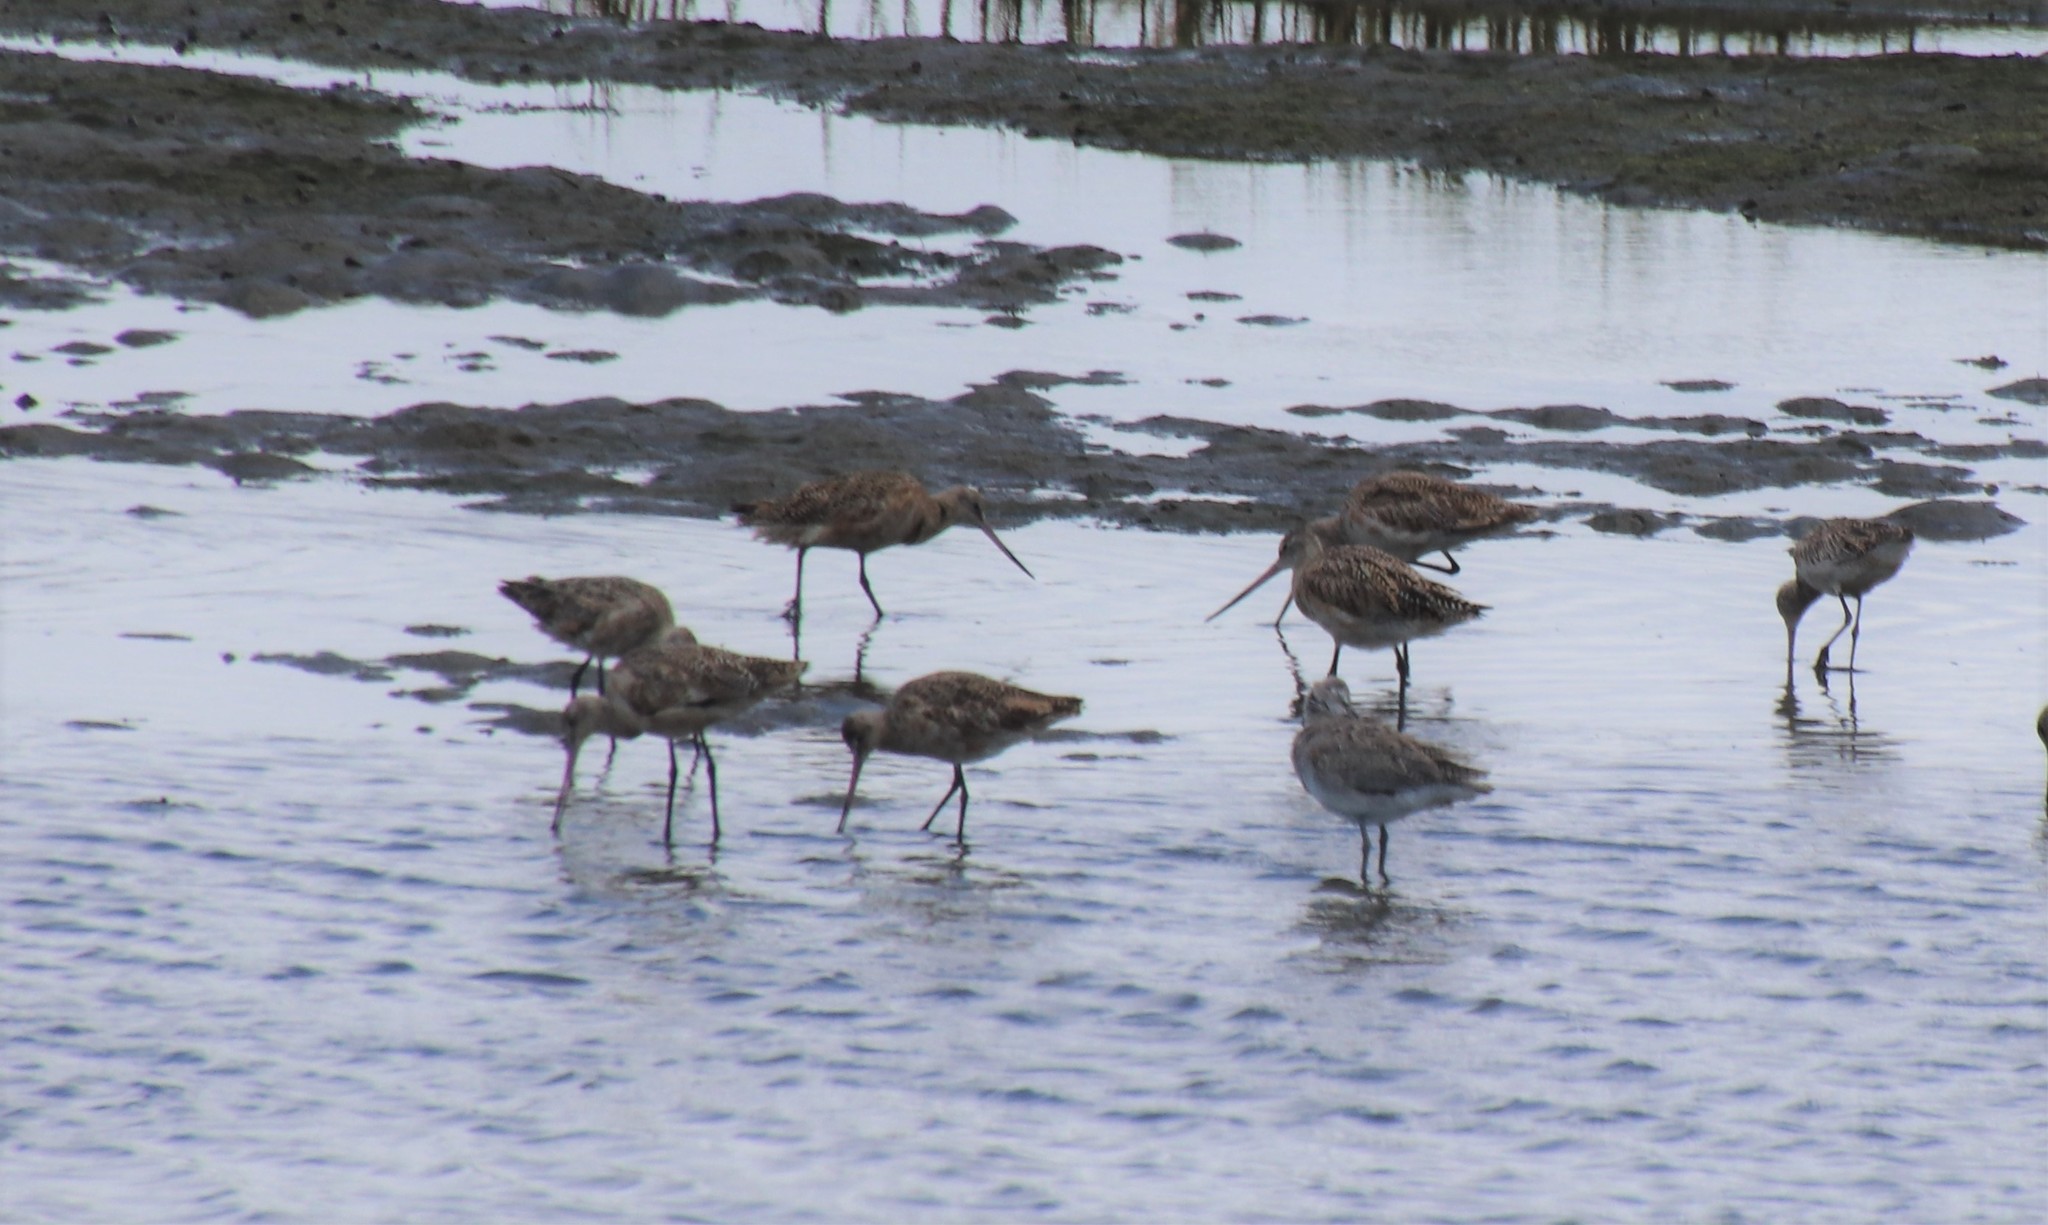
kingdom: Animalia
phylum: Chordata
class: Aves
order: Charadriiformes
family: Scolopacidae
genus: Limosa
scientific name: Limosa fedoa
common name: Marbled godwit
